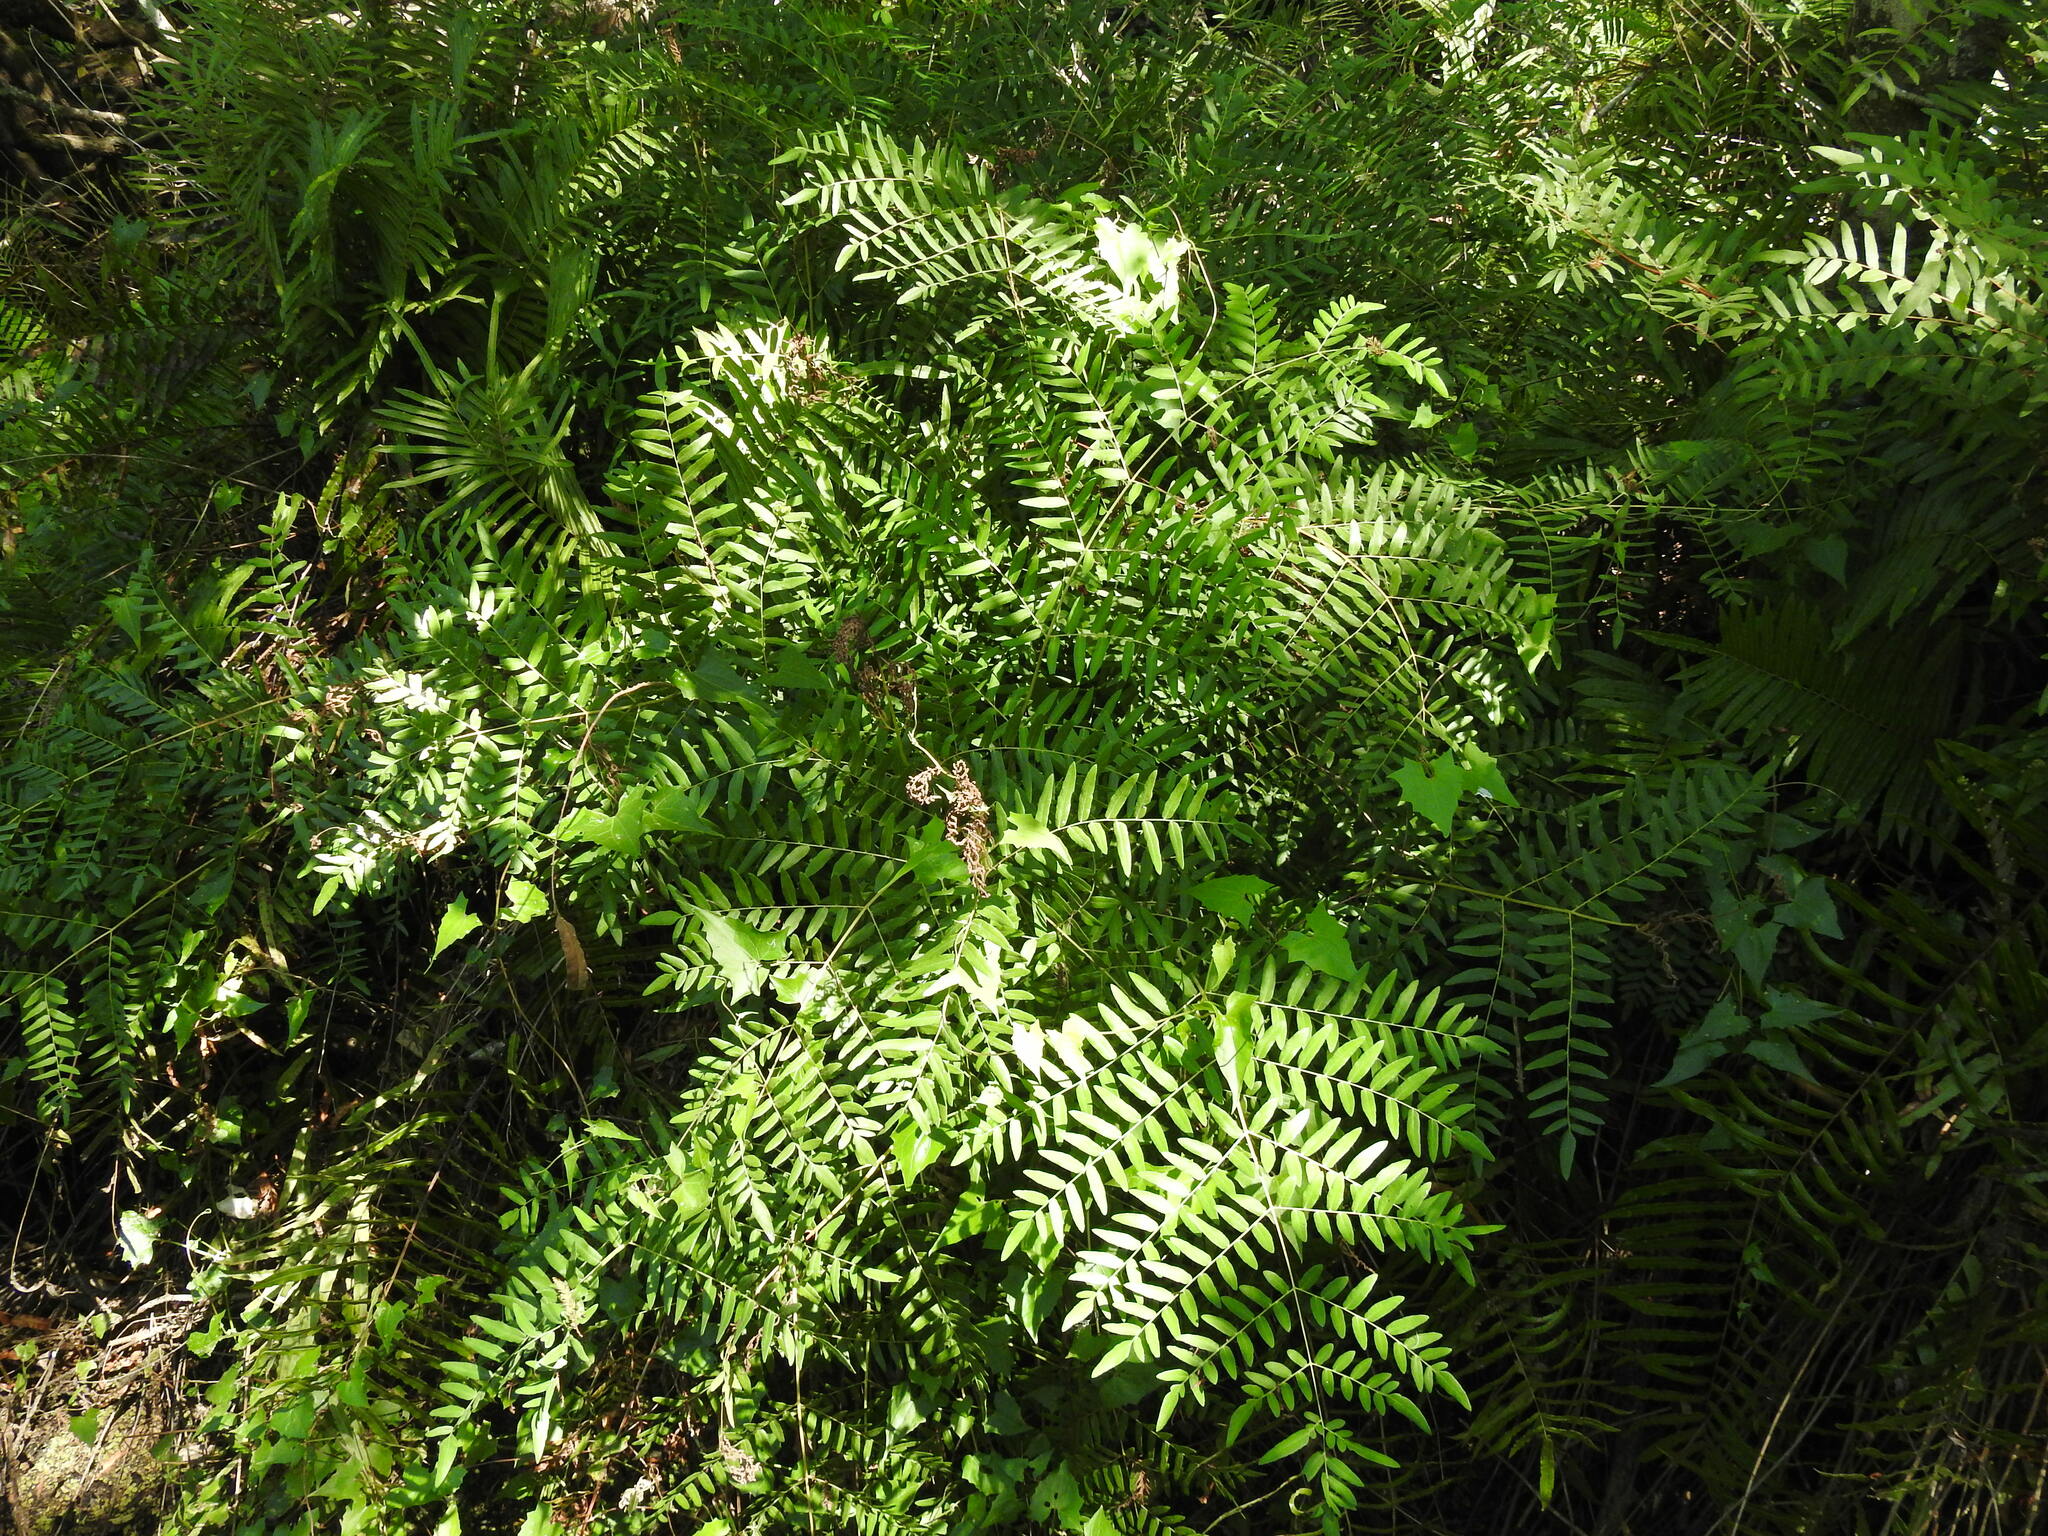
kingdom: Plantae
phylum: Tracheophyta
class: Polypodiopsida
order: Osmundales
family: Osmundaceae
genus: Osmunda
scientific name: Osmunda spectabilis
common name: American royal fern
